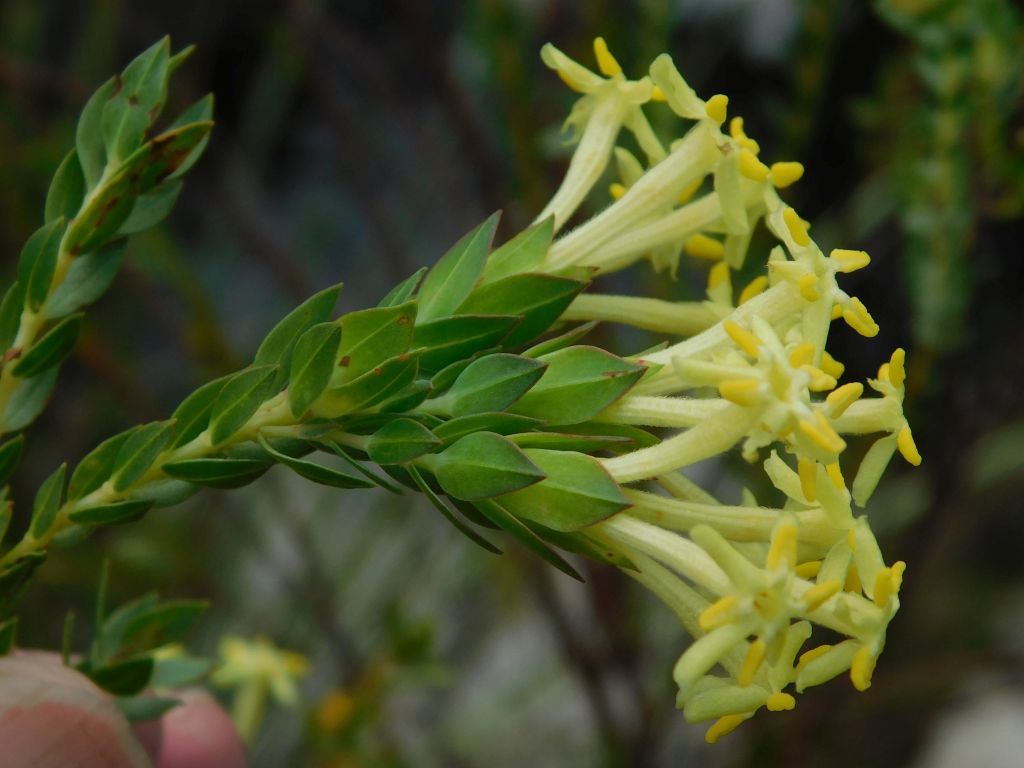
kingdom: Plantae
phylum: Tracheophyta
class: Magnoliopsida
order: Malvales
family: Thymelaeaceae
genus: Gnidia
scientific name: Gnidia oppositifolia
